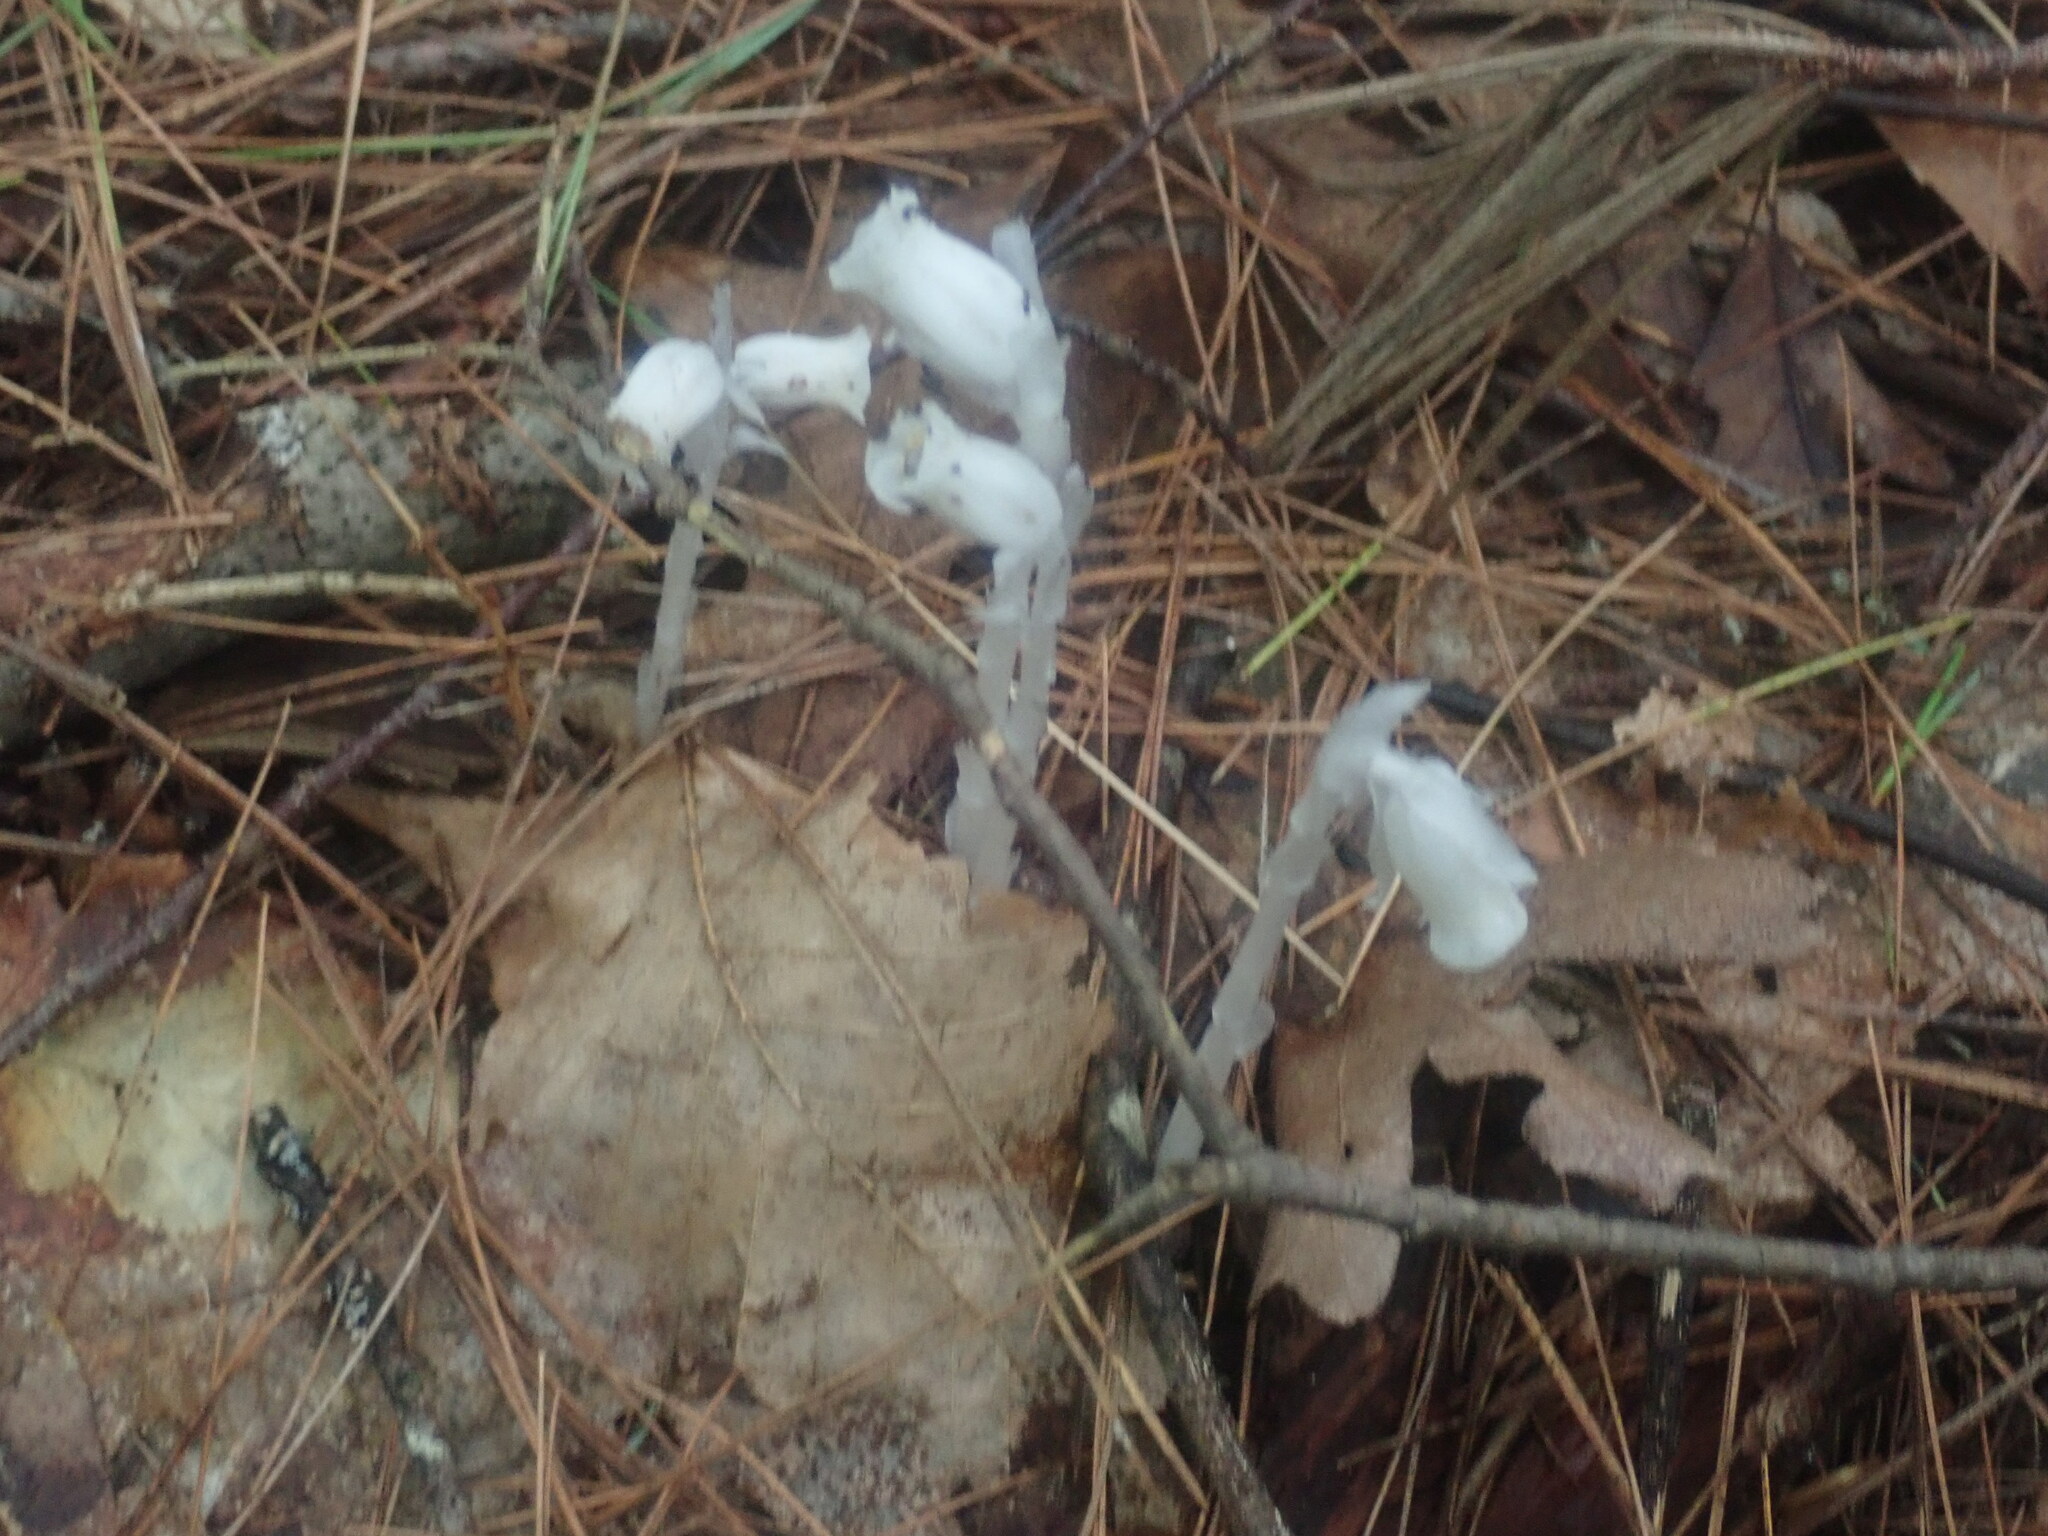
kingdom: Plantae
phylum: Tracheophyta
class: Magnoliopsida
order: Ericales
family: Ericaceae
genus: Monotropa
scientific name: Monotropa uniflora
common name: Convulsion root
